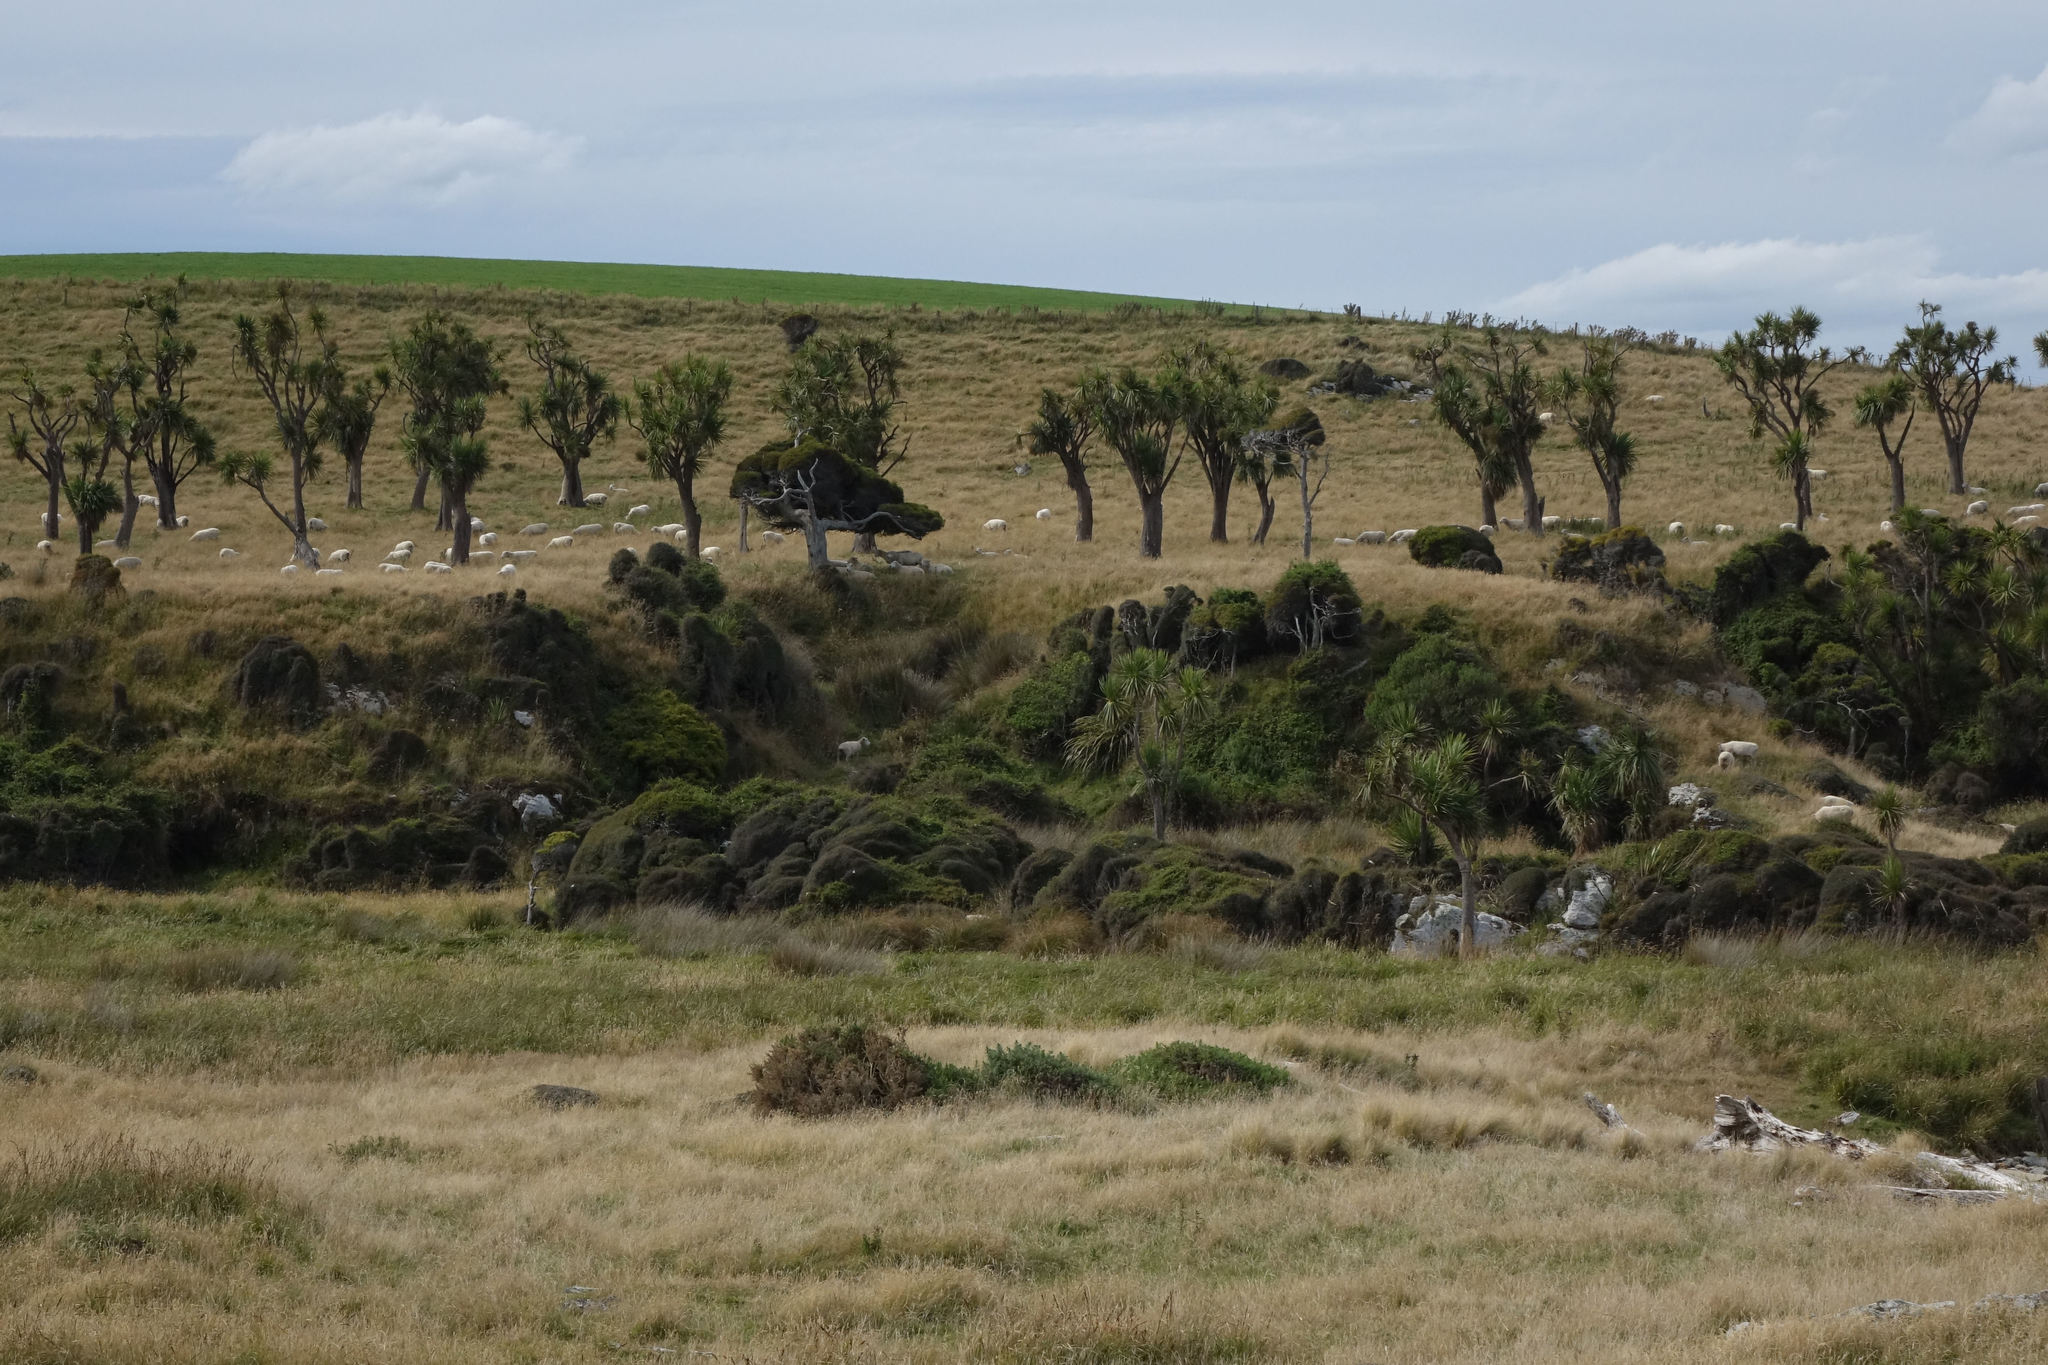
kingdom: Plantae
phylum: Tracheophyta
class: Liliopsida
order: Asparagales
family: Asparagaceae
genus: Cordyline
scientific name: Cordyline australis
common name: Cabbage-palm
